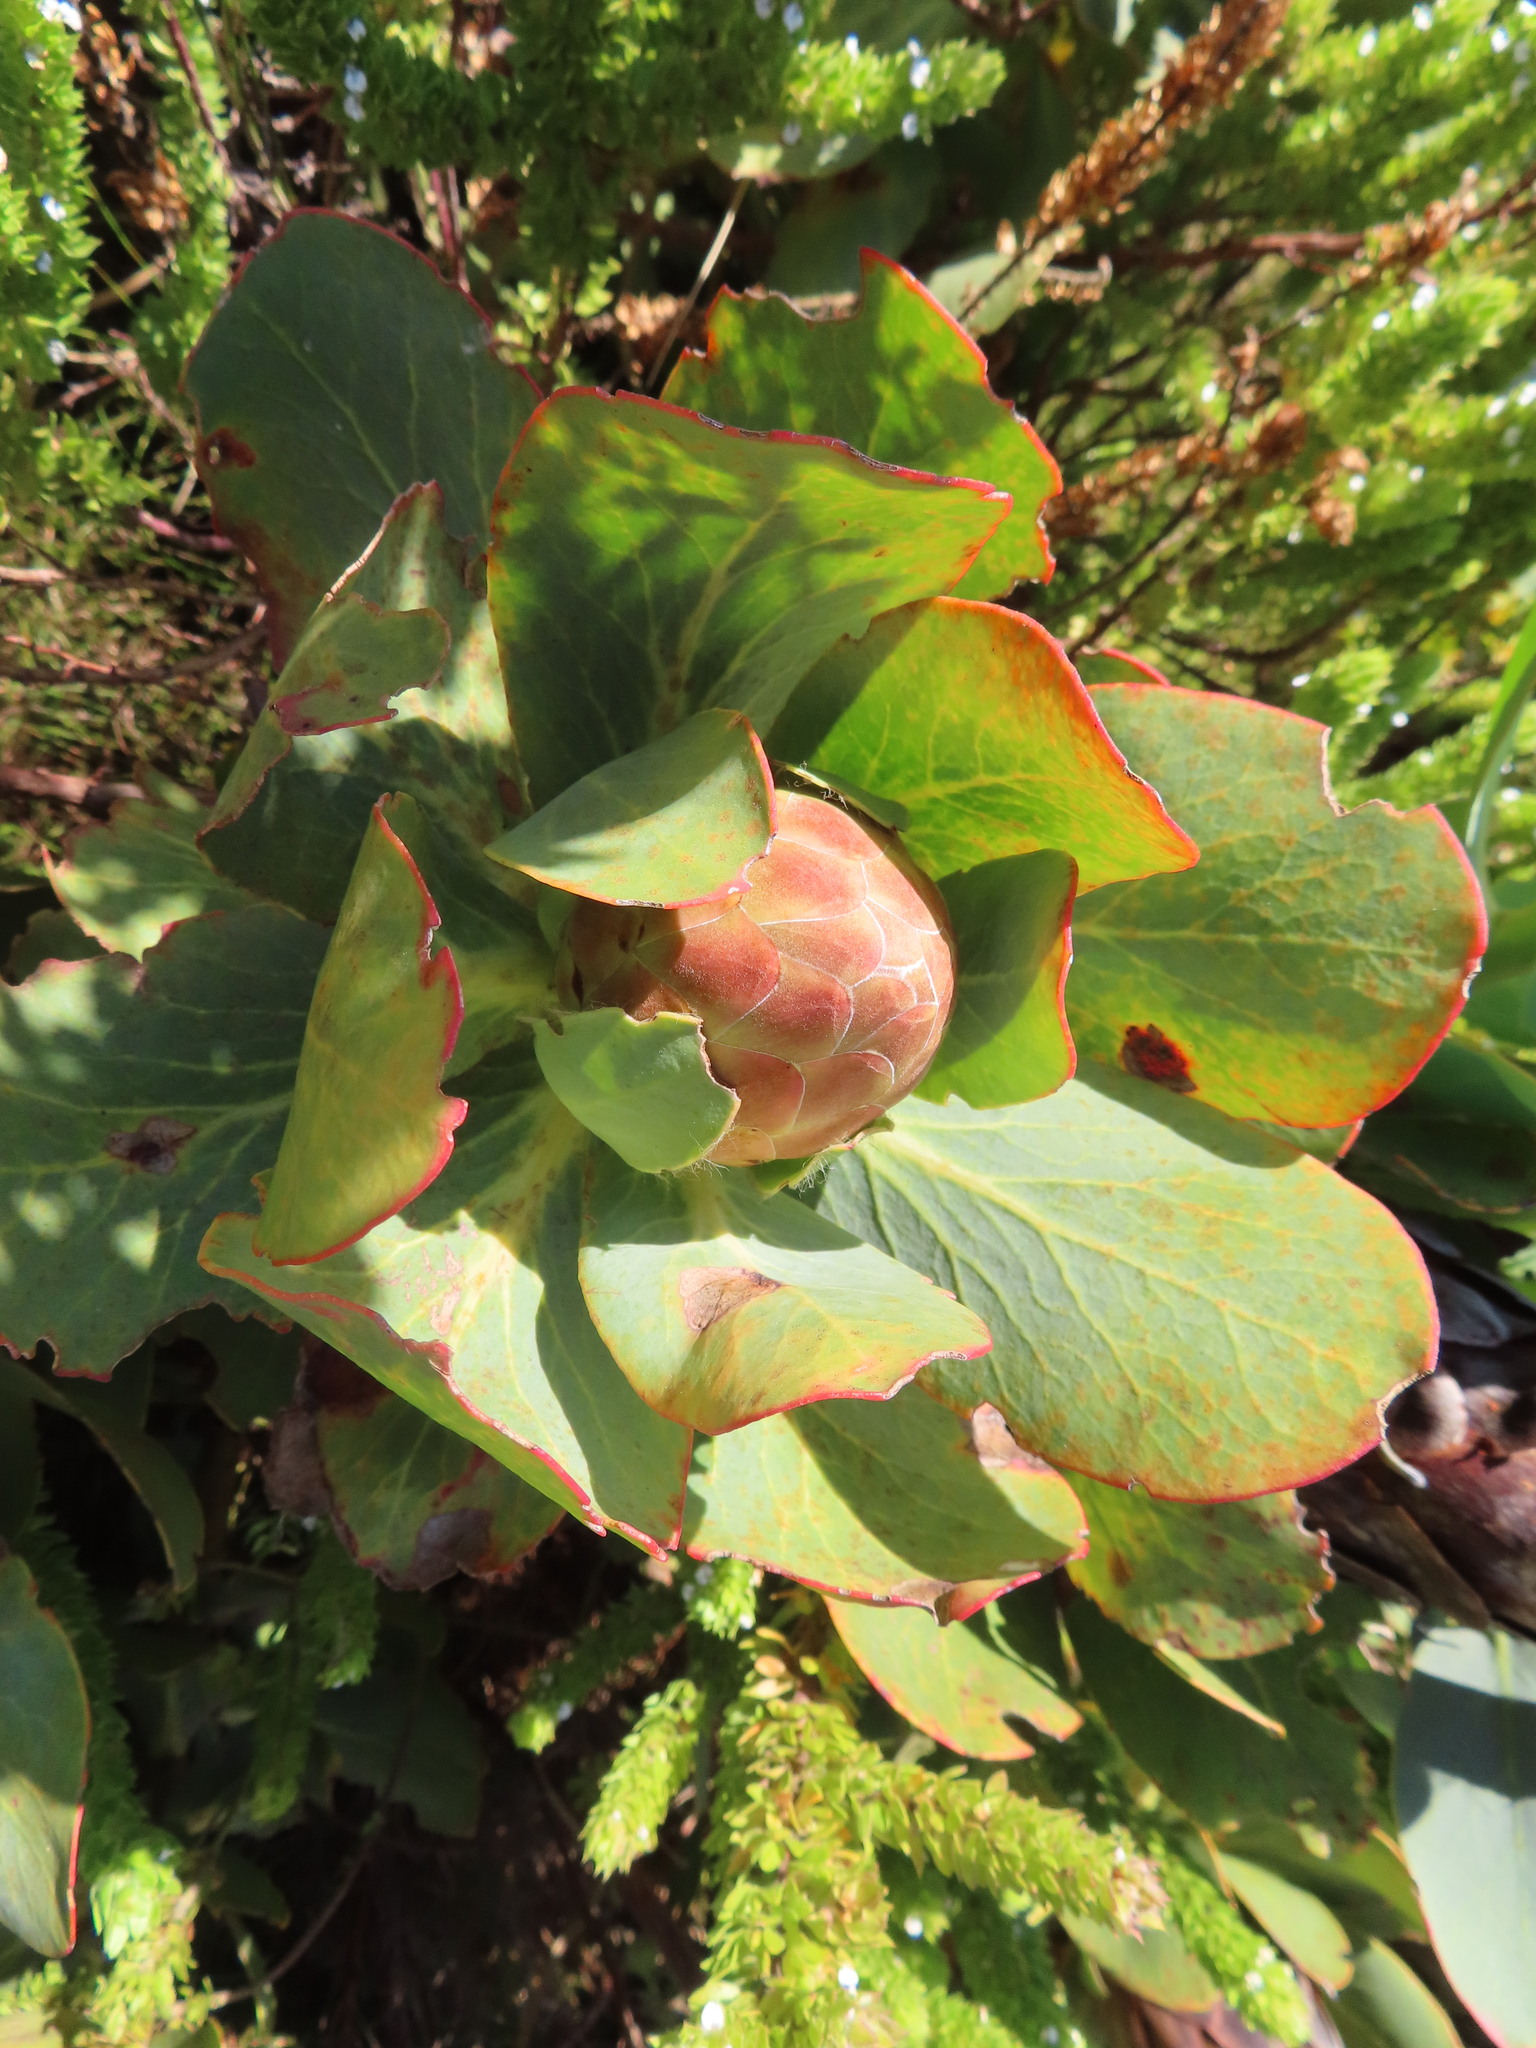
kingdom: Plantae
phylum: Tracheophyta
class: Magnoliopsida
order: Proteales
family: Proteaceae
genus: Protea
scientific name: Protea grandiceps
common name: Red sugarbush
